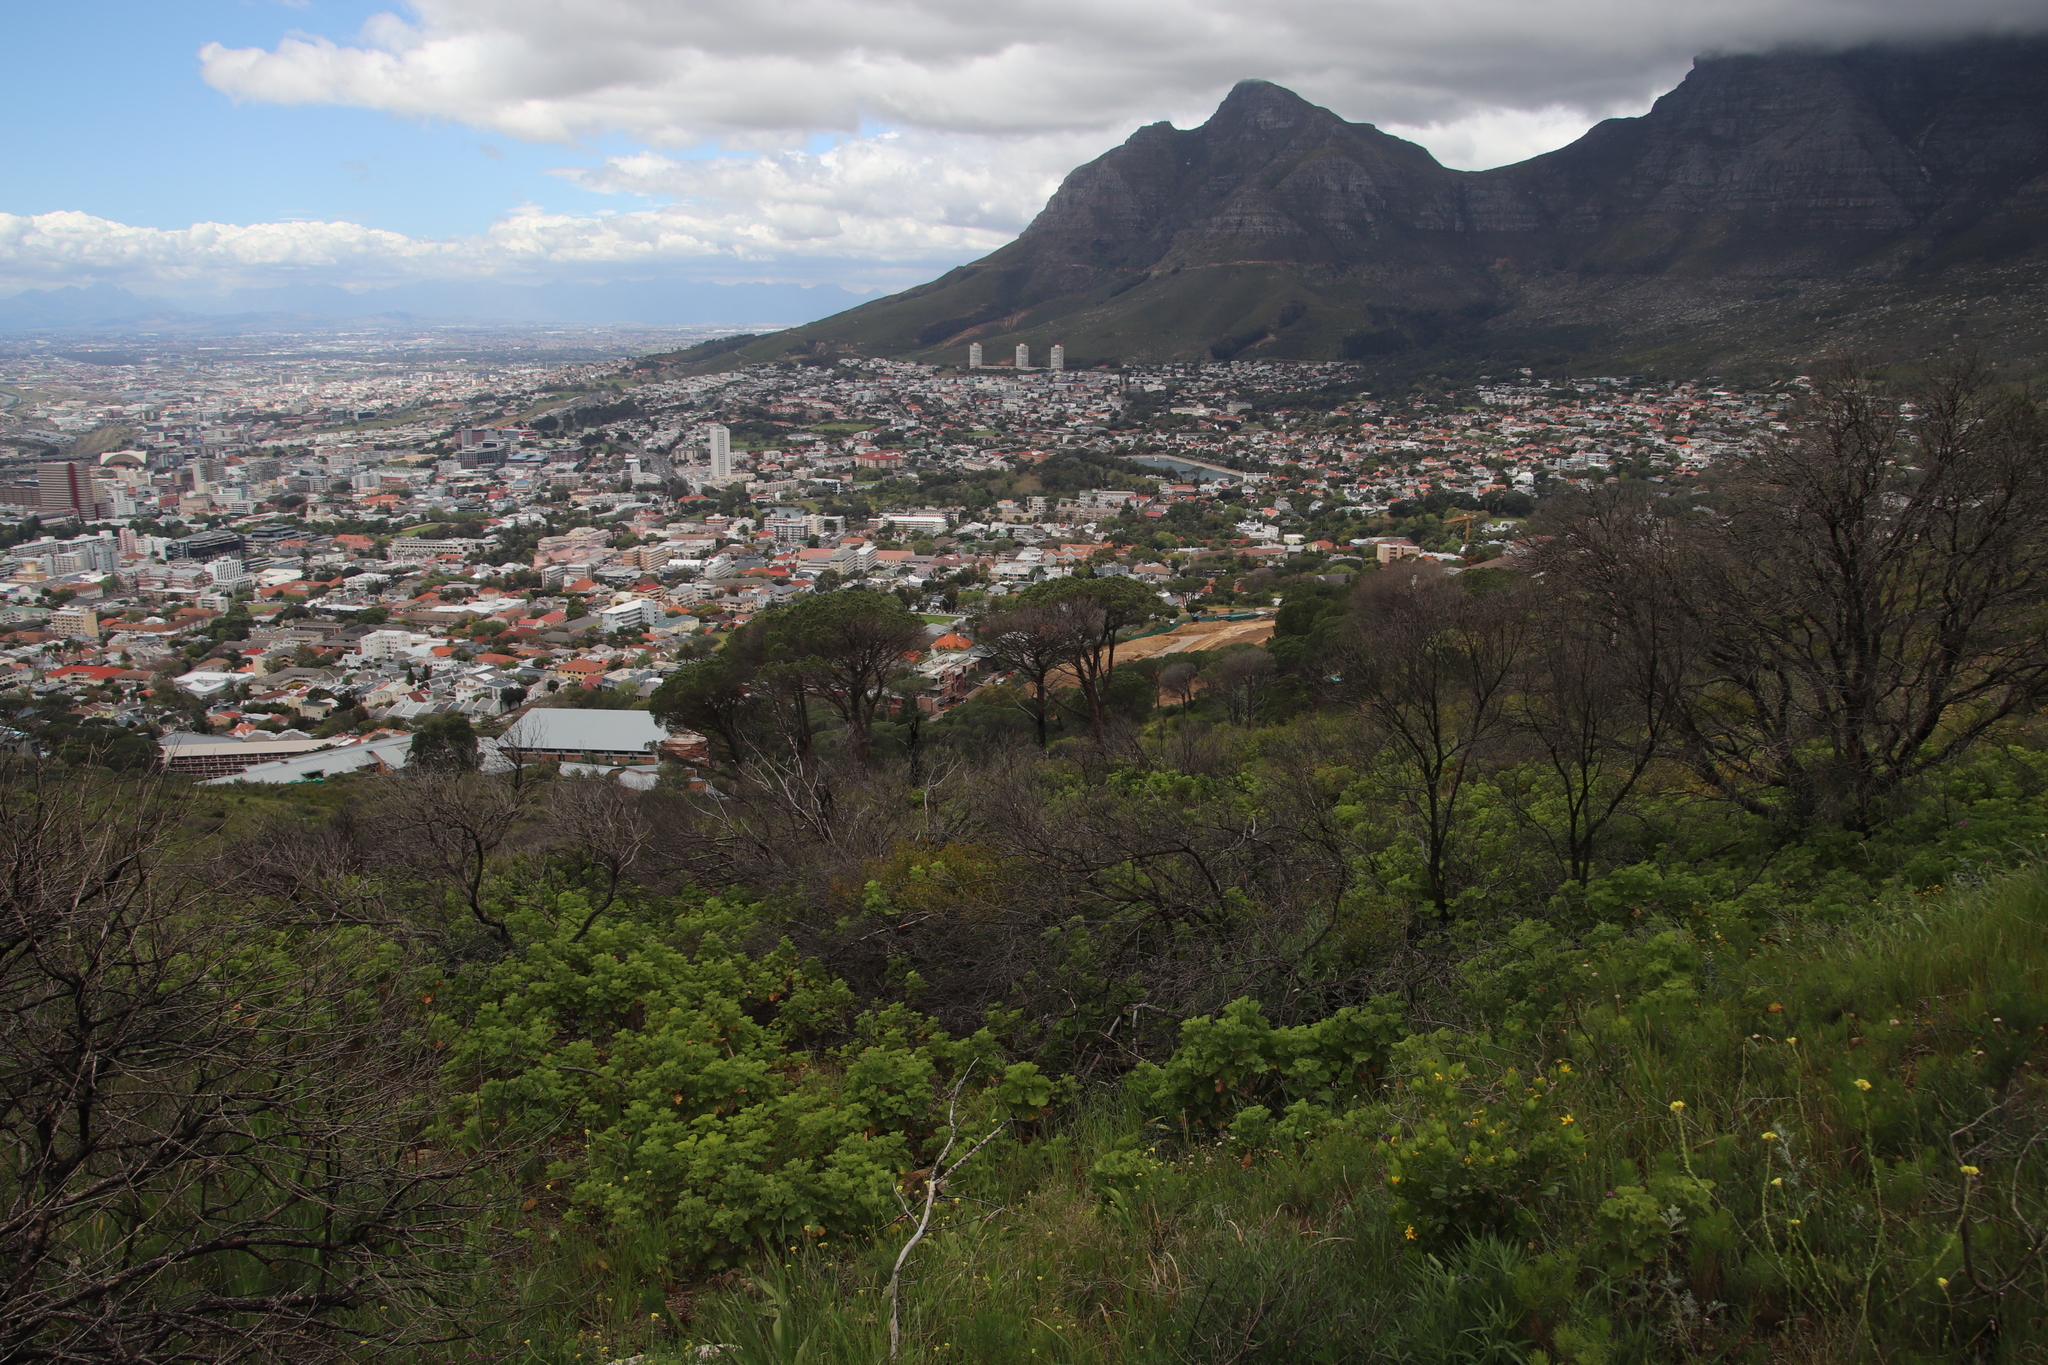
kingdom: Plantae
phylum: Tracheophyta
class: Magnoliopsida
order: Geraniales
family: Geraniaceae
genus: Pelargonium
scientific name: Pelargonium cucullatum
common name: Tree pelargonium
